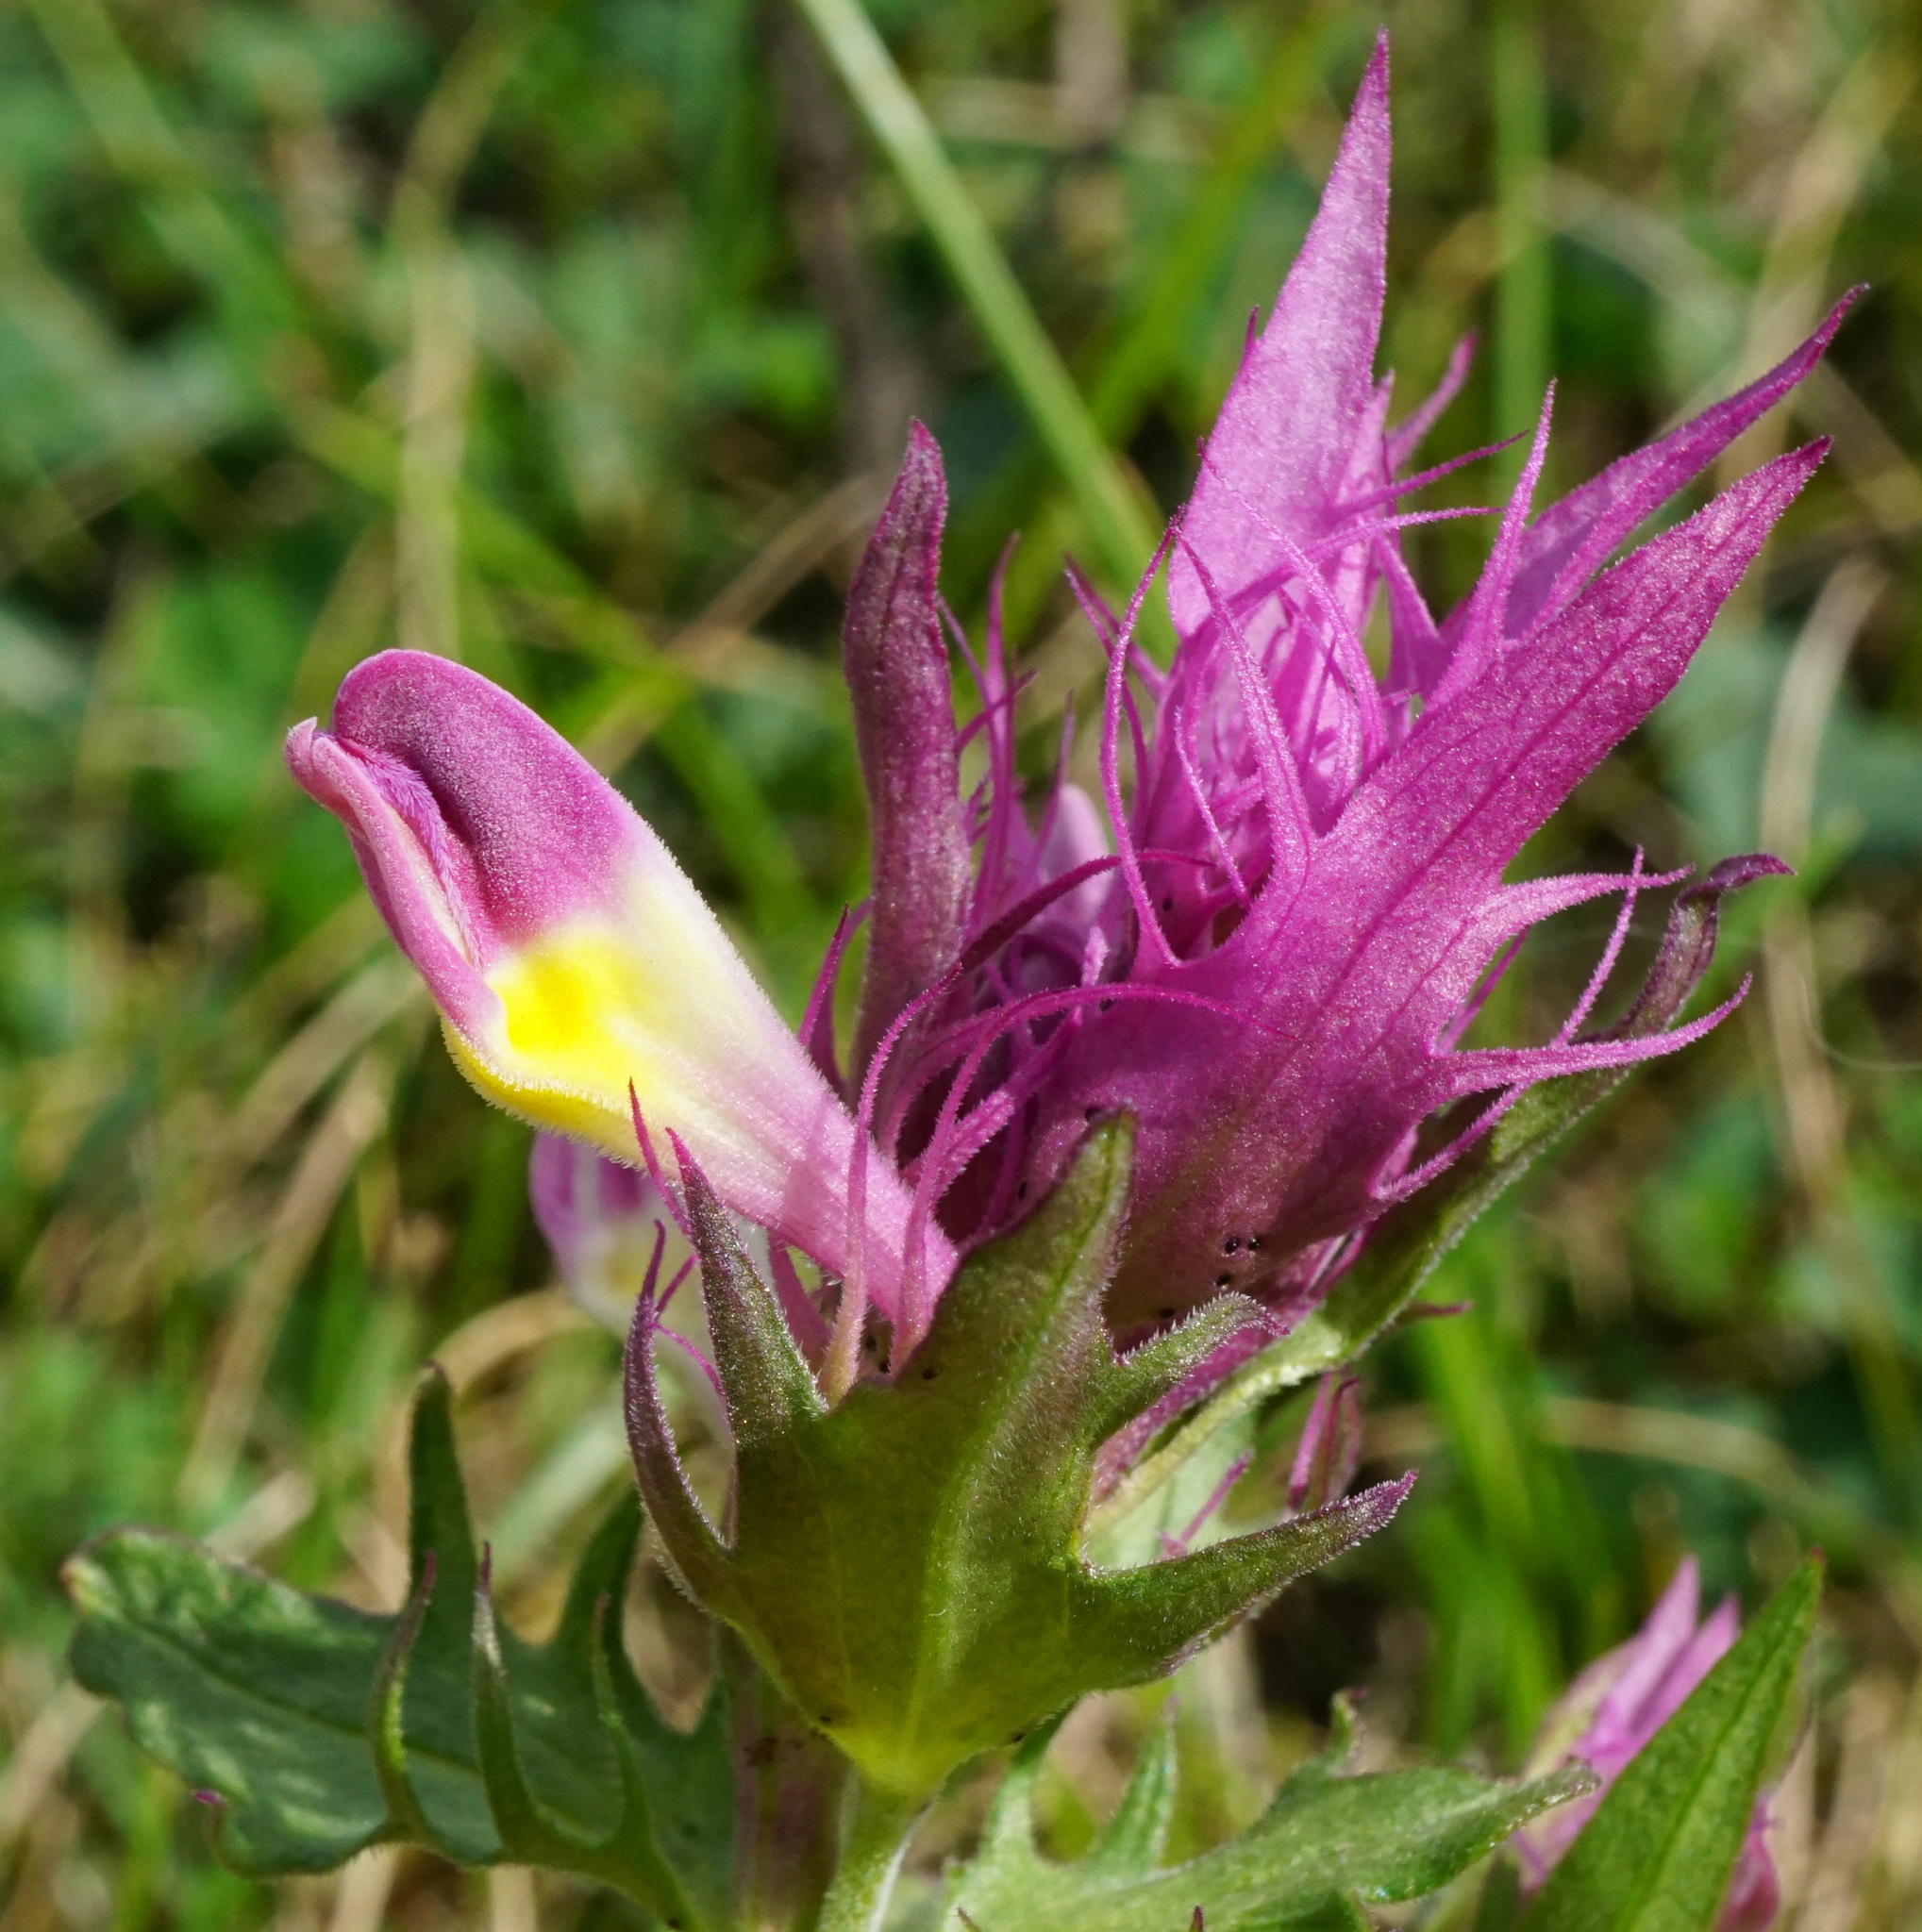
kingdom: Plantae
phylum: Tracheophyta
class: Magnoliopsida
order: Lamiales
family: Orobanchaceae
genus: Melampyrum
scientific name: Melampyrum arvense
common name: Field cow-wheat
